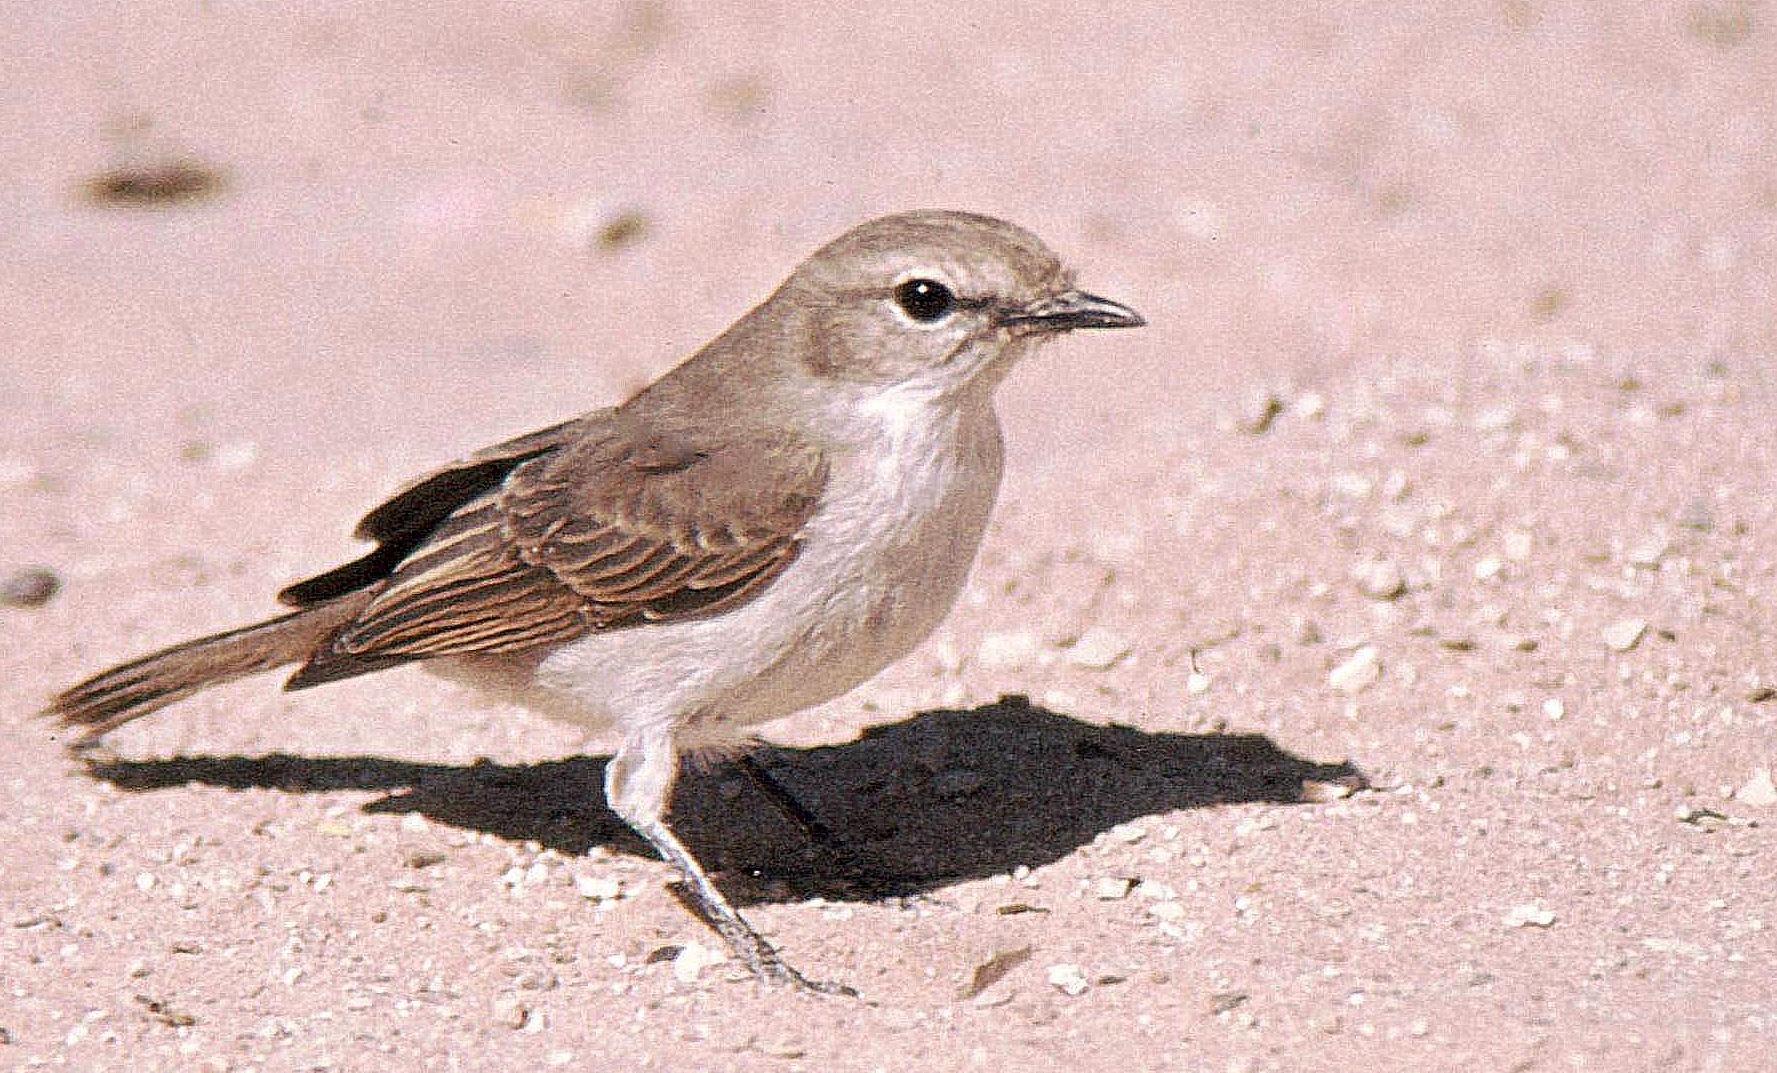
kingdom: Animalia
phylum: Chordata
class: Aves
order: Passeriformes
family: Muscicapidae
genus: Bradornis
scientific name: Bradornis mariquensis
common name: Marico flycatcher
